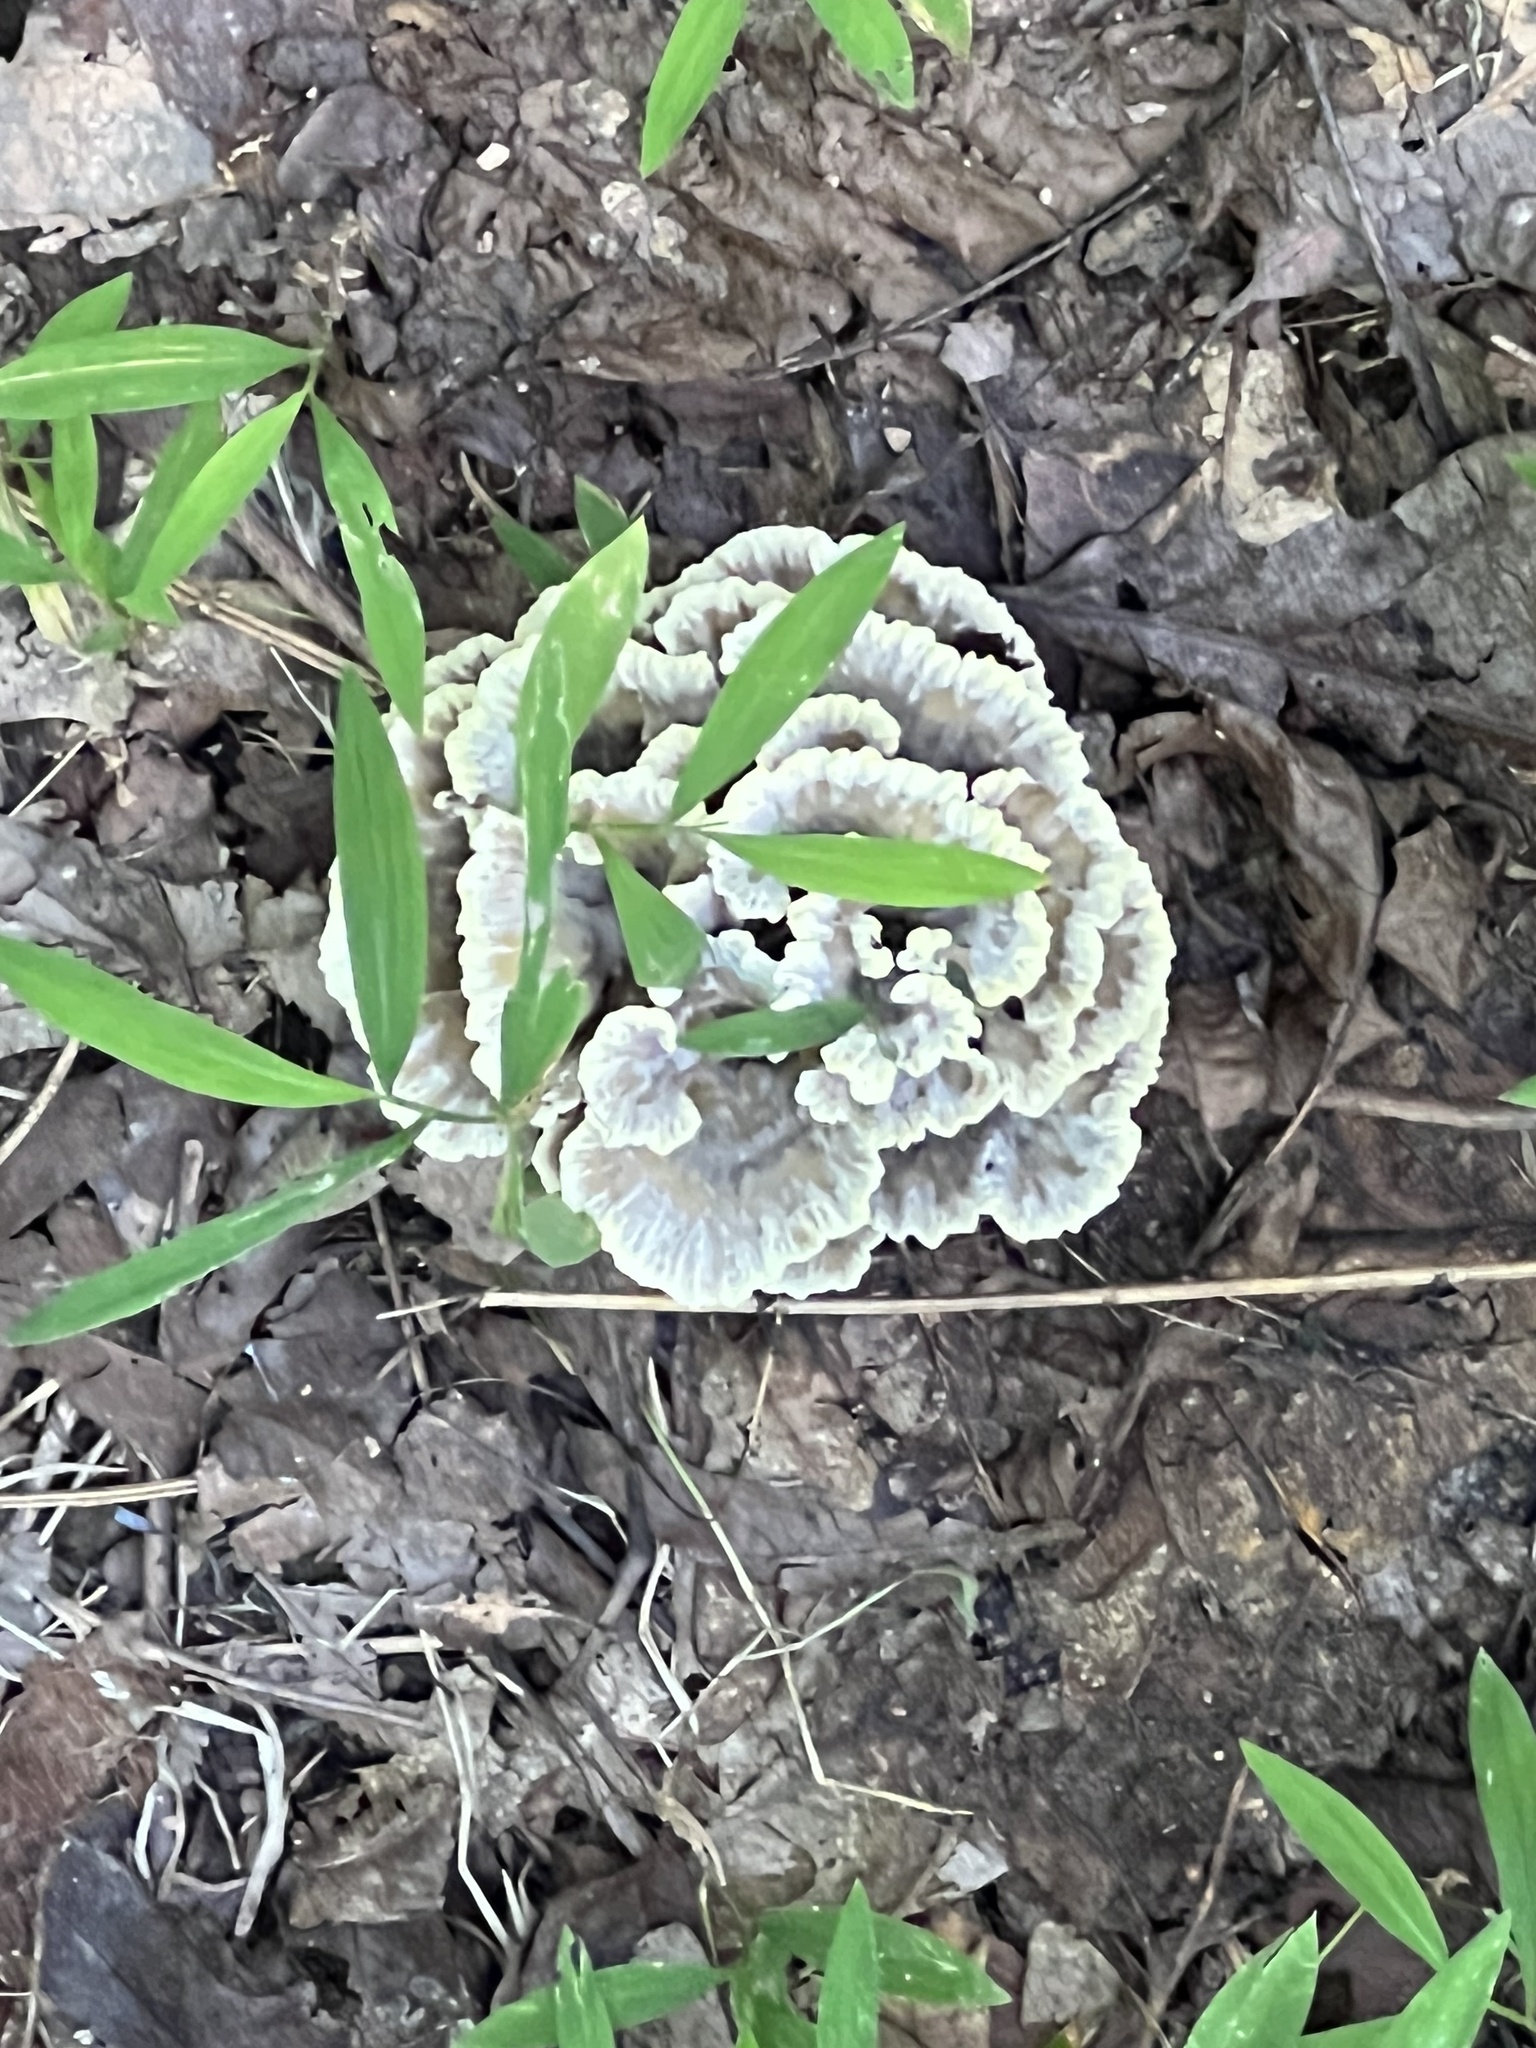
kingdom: Fungi
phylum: Basidiomycota
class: Agaricomycetes
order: Thelephorales
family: Thelephoraceae
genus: Thelephora
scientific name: Thelephora vialis
